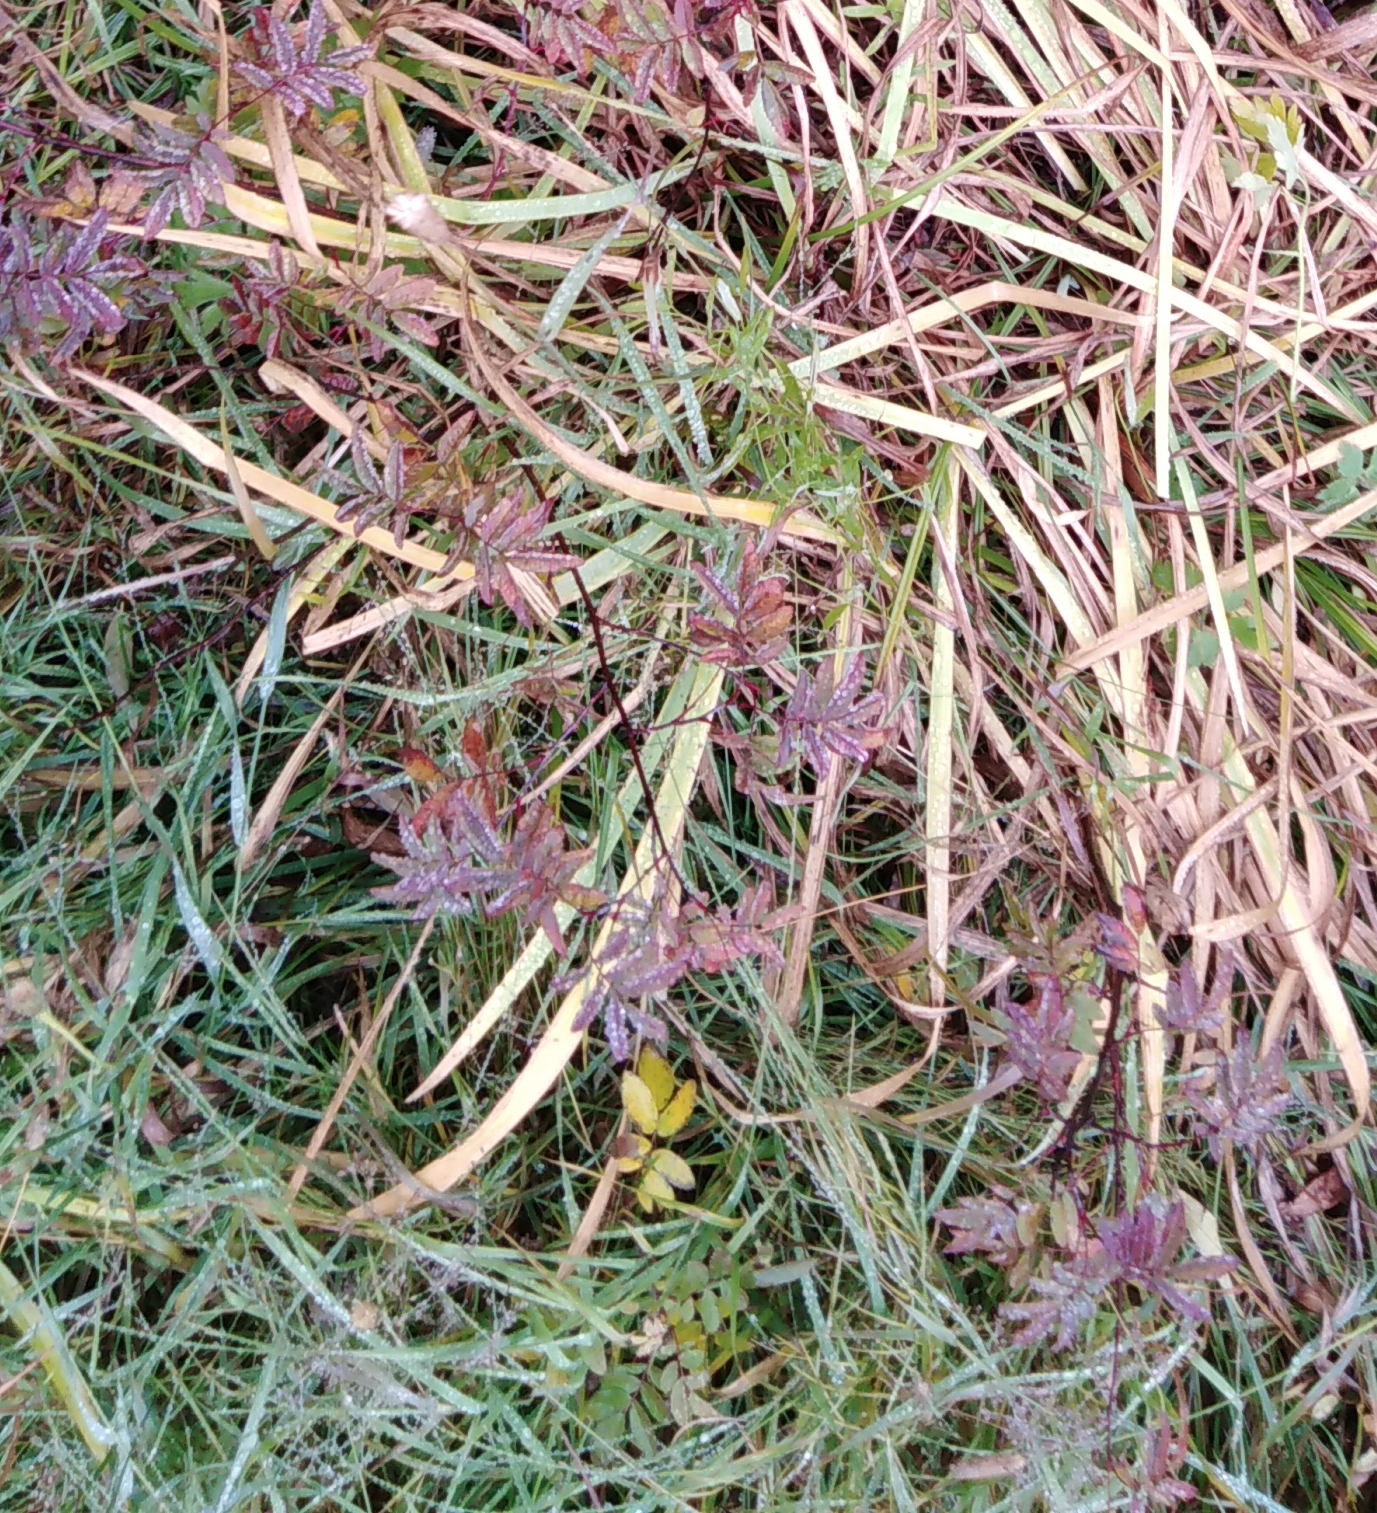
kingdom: Plantae
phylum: Tracheophyta
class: Magnoliopsida
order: Rosales
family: Rosaceae
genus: Rosa
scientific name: Rosa davurica
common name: Amur rose
